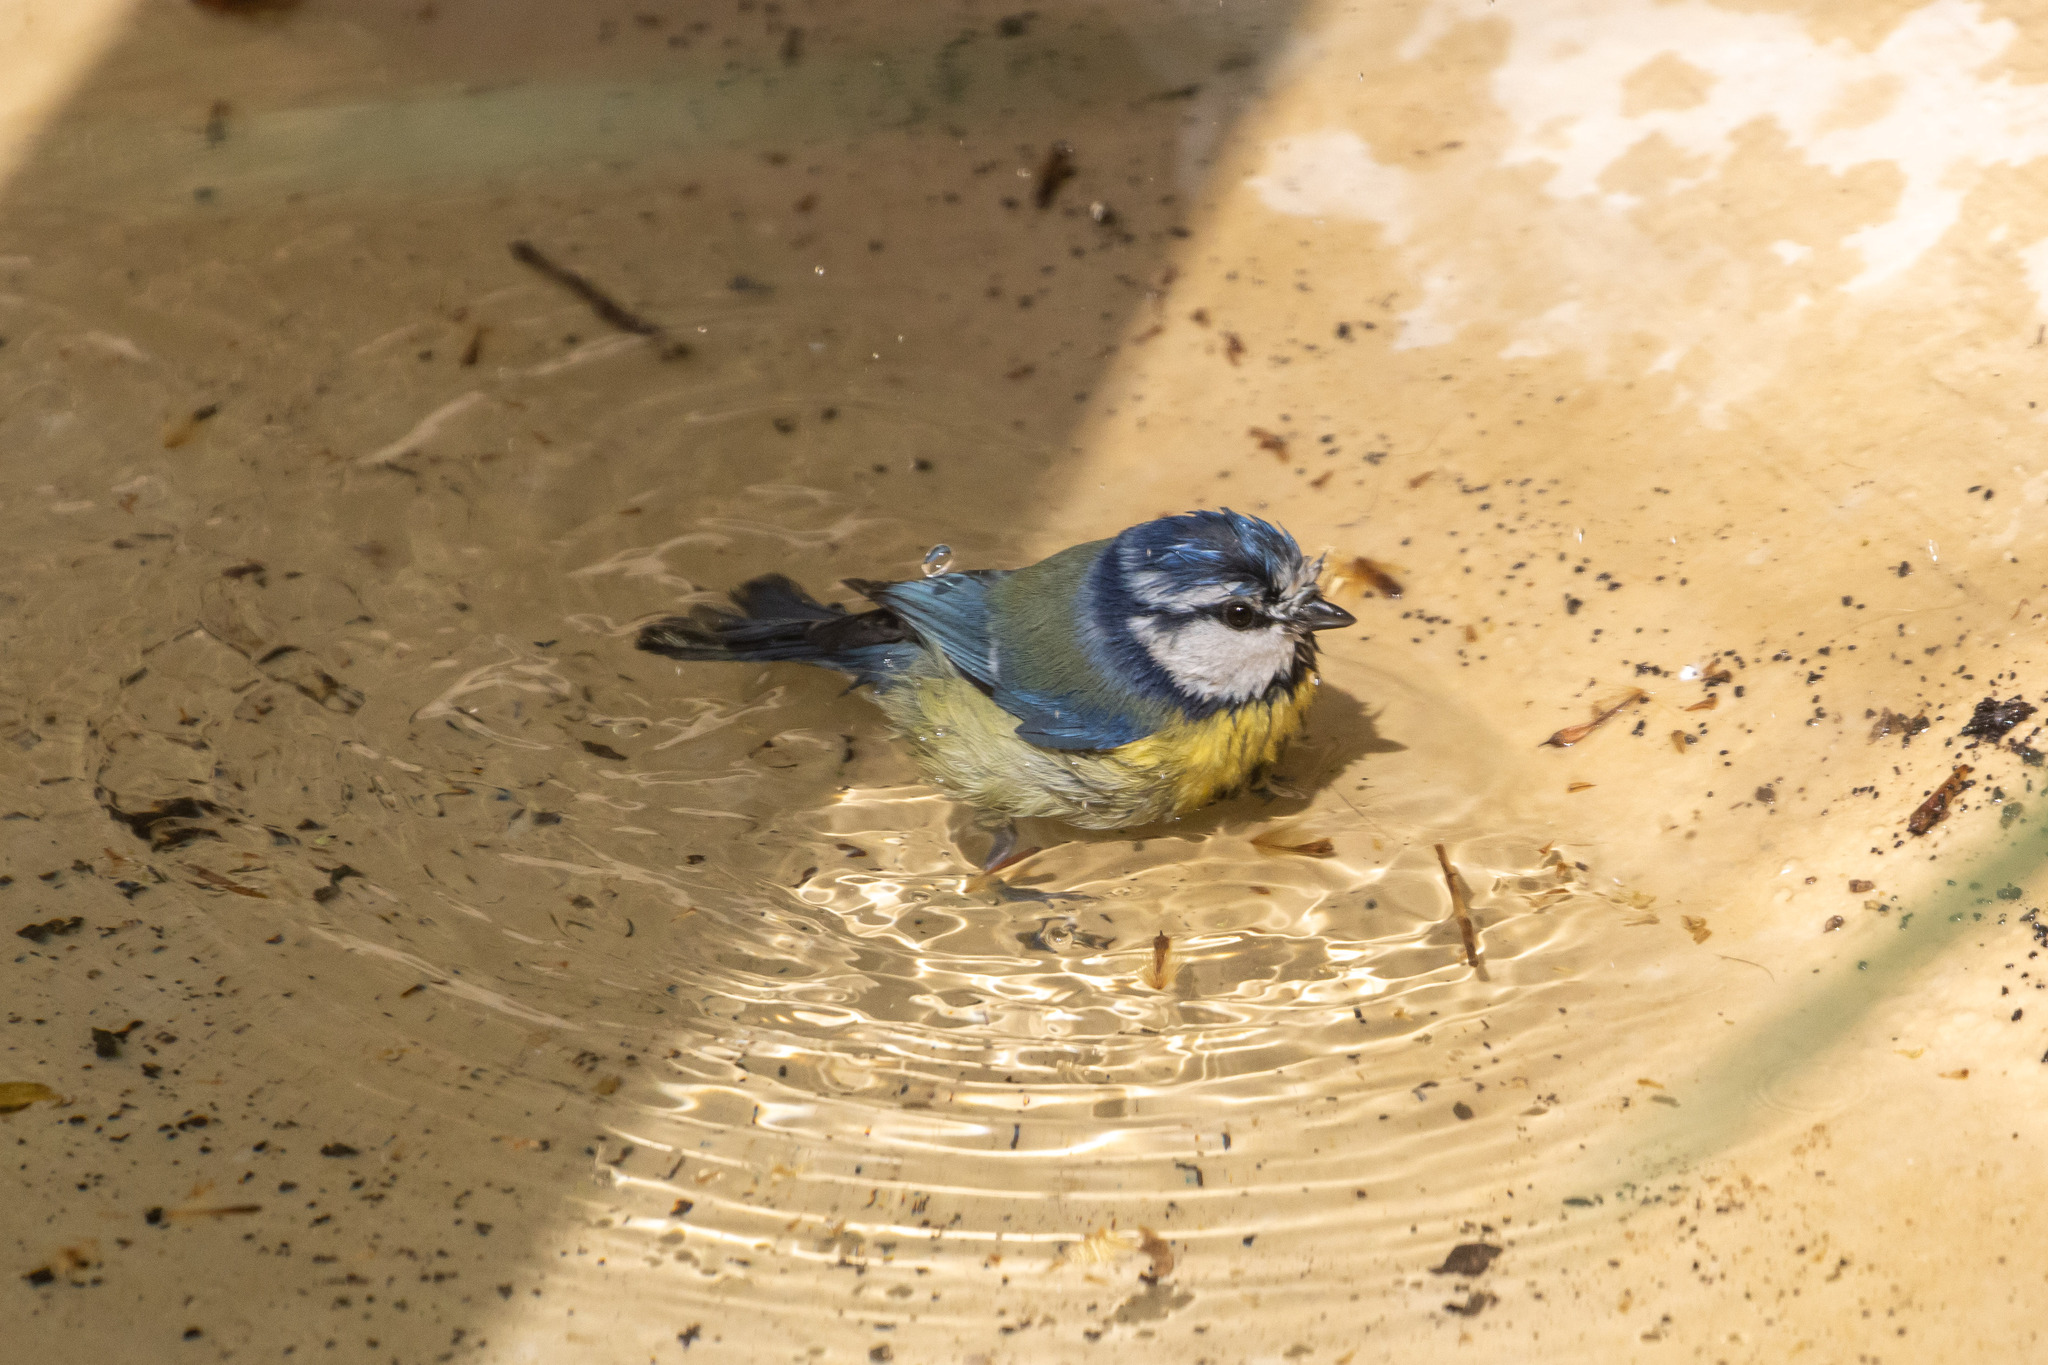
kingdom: Animalia
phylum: Chordata
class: Aves
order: Passeriformes
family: Paridae
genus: Cyanistes
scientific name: Cyanistes caeruleus
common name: Eurasian blue tit
